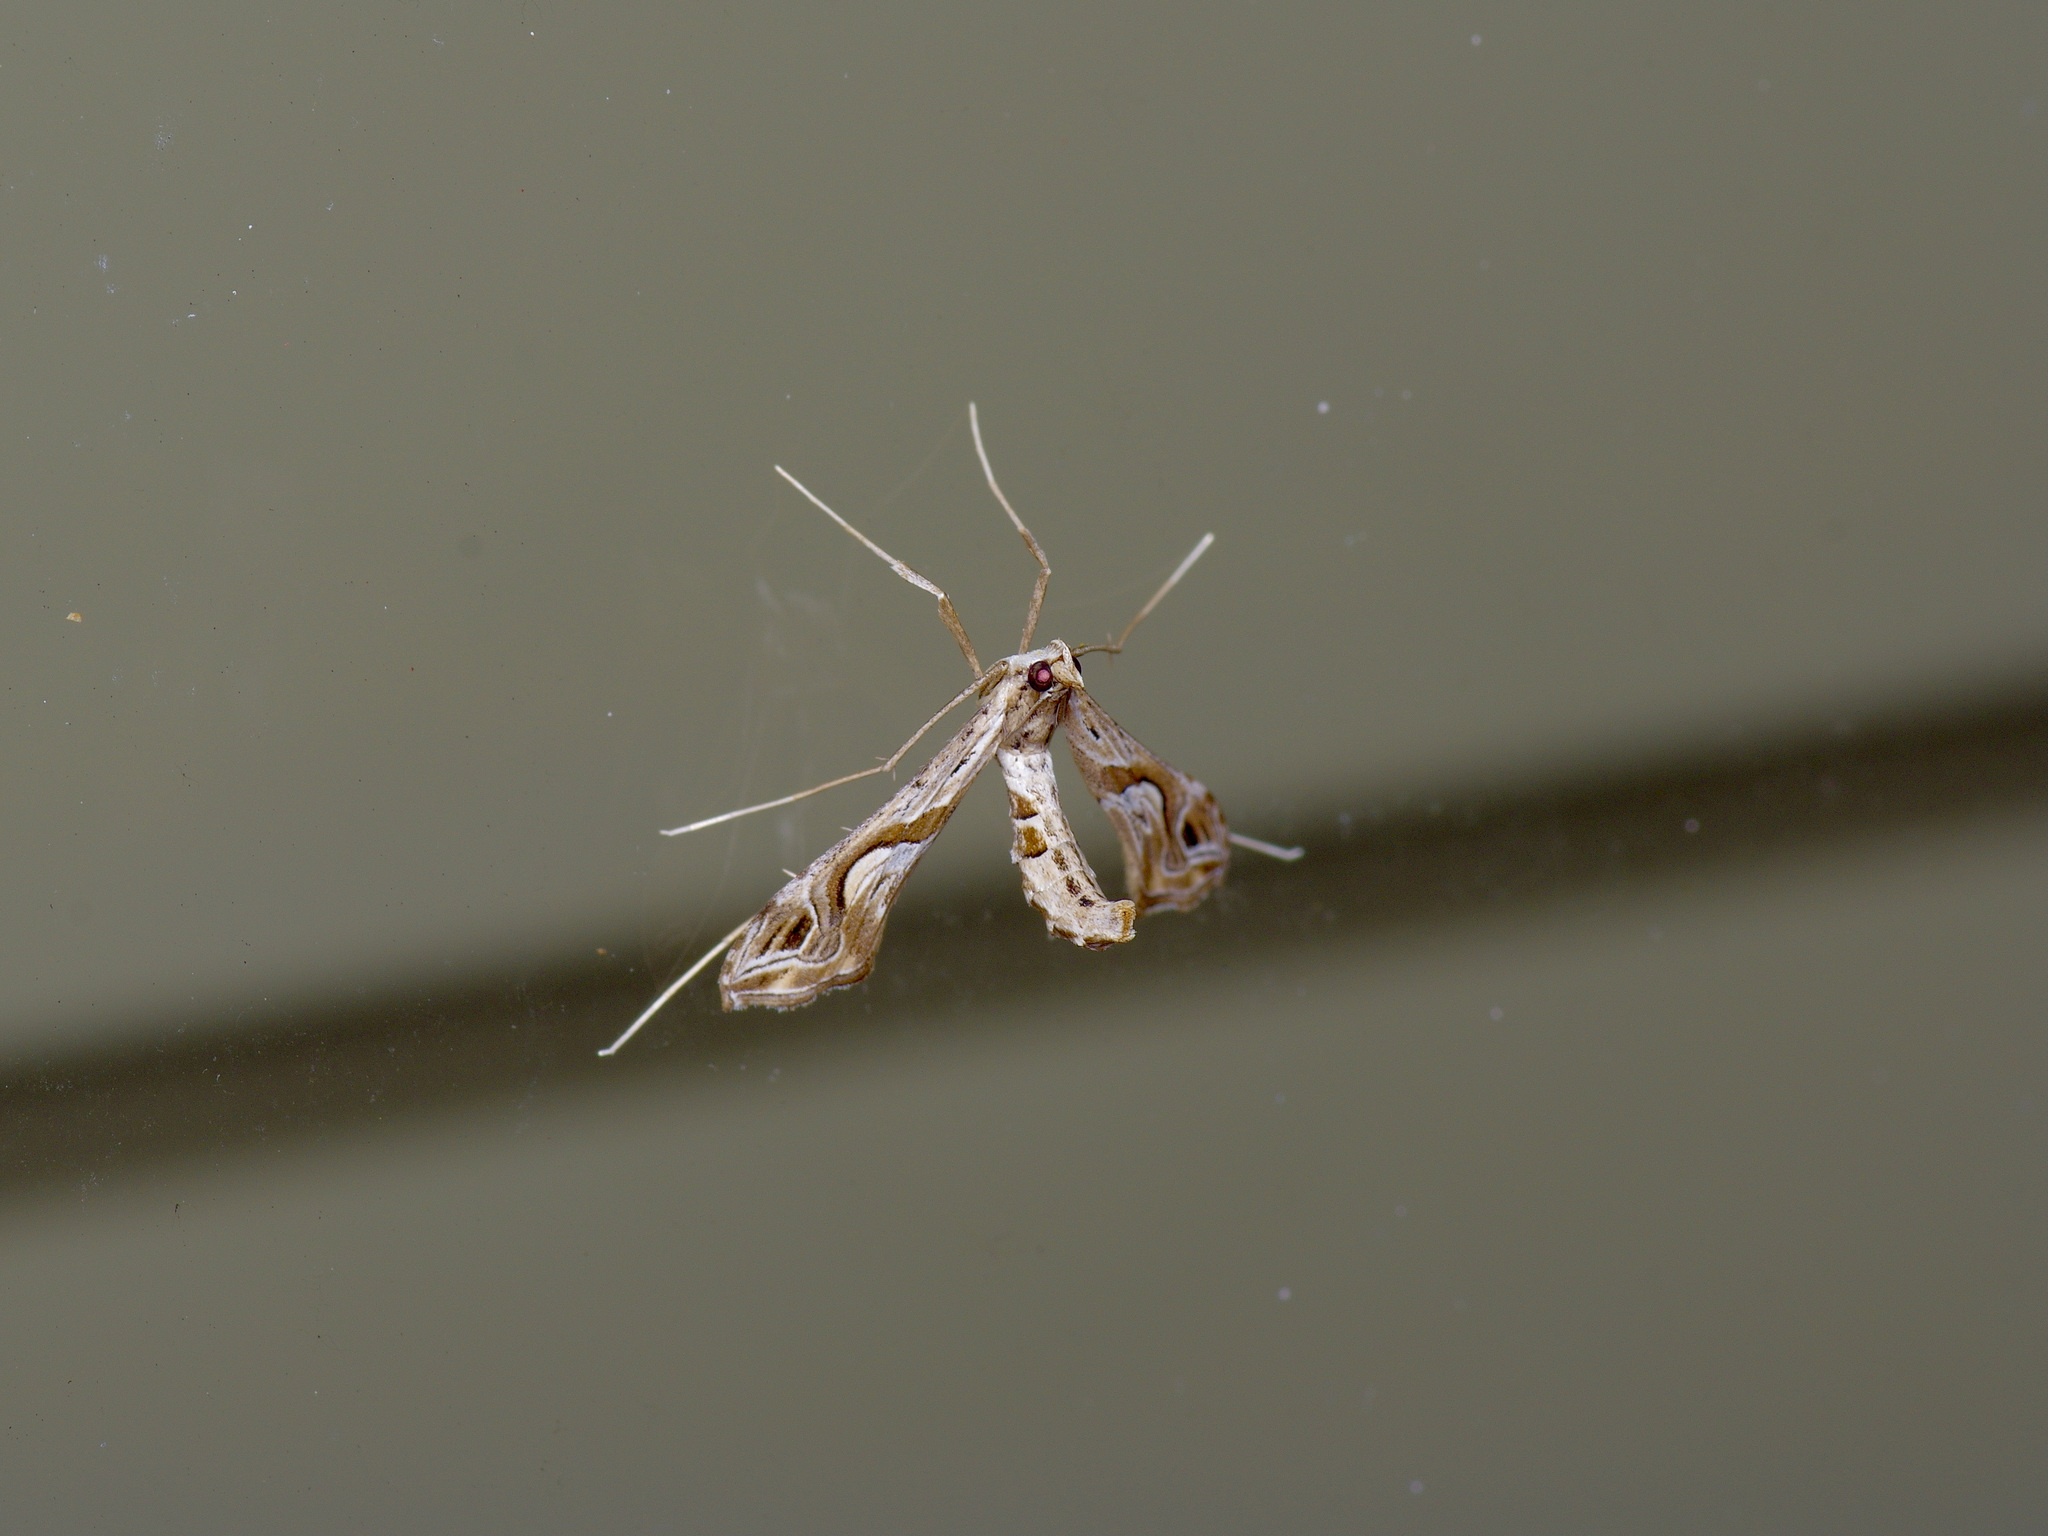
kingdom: Animalia
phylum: Arthropoda
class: Insecta
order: Lepidoptera
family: Crambidae
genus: Lineodes
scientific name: Lineodes integra
